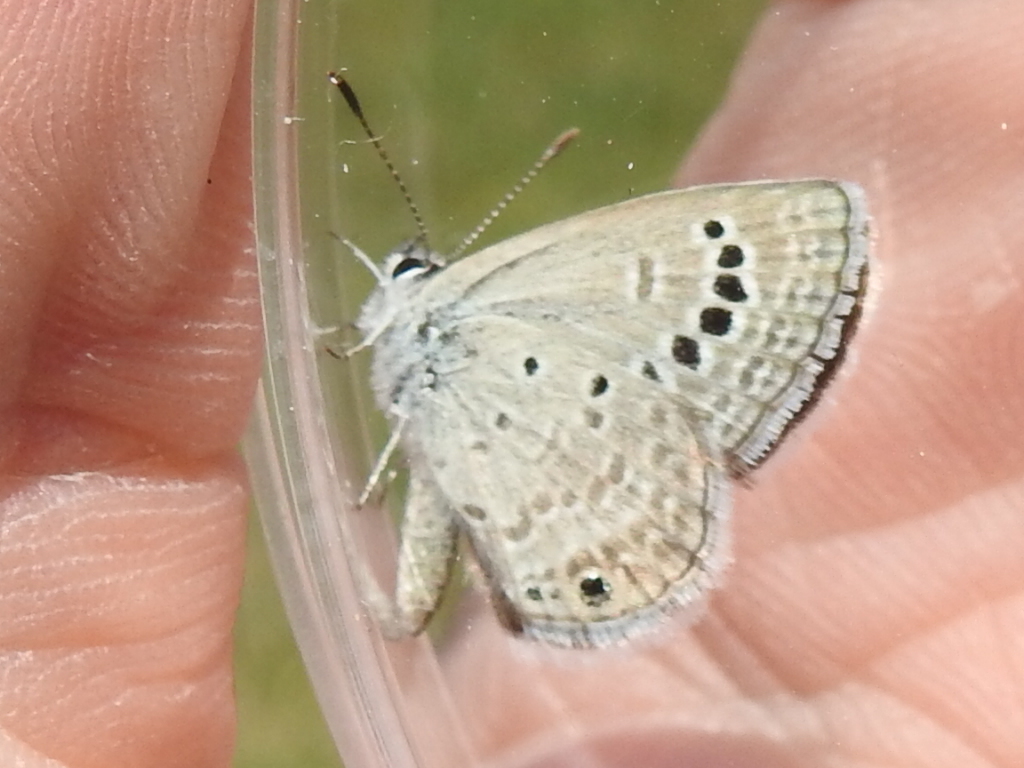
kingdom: Animalia
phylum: Arthropoda
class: Insecta
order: Lepidoptera
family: Lycaenidae
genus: Echinargus
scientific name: Echinargus isola
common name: Reakirt's blue
